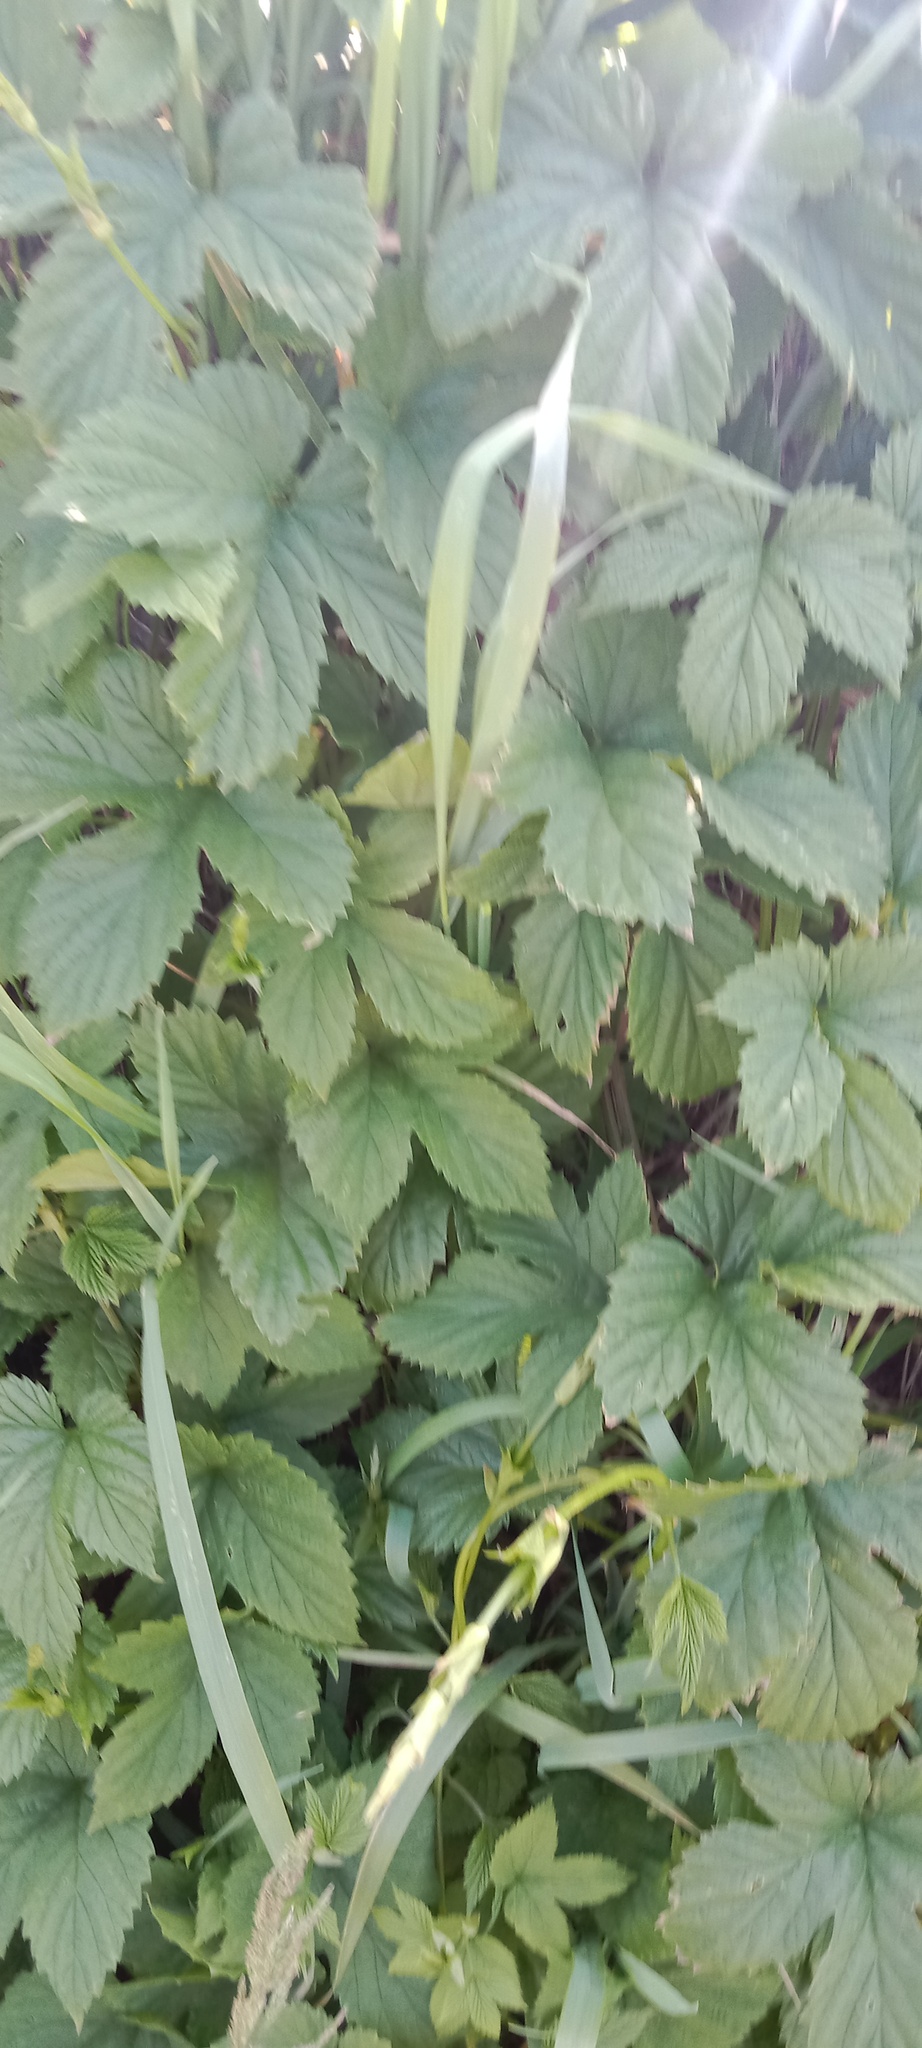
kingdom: Plantae
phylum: Tracheophyta
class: Magnoliopsida
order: Rosales
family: Cannabaceae
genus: Humulus
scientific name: Humulus lupulus
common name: Hop
